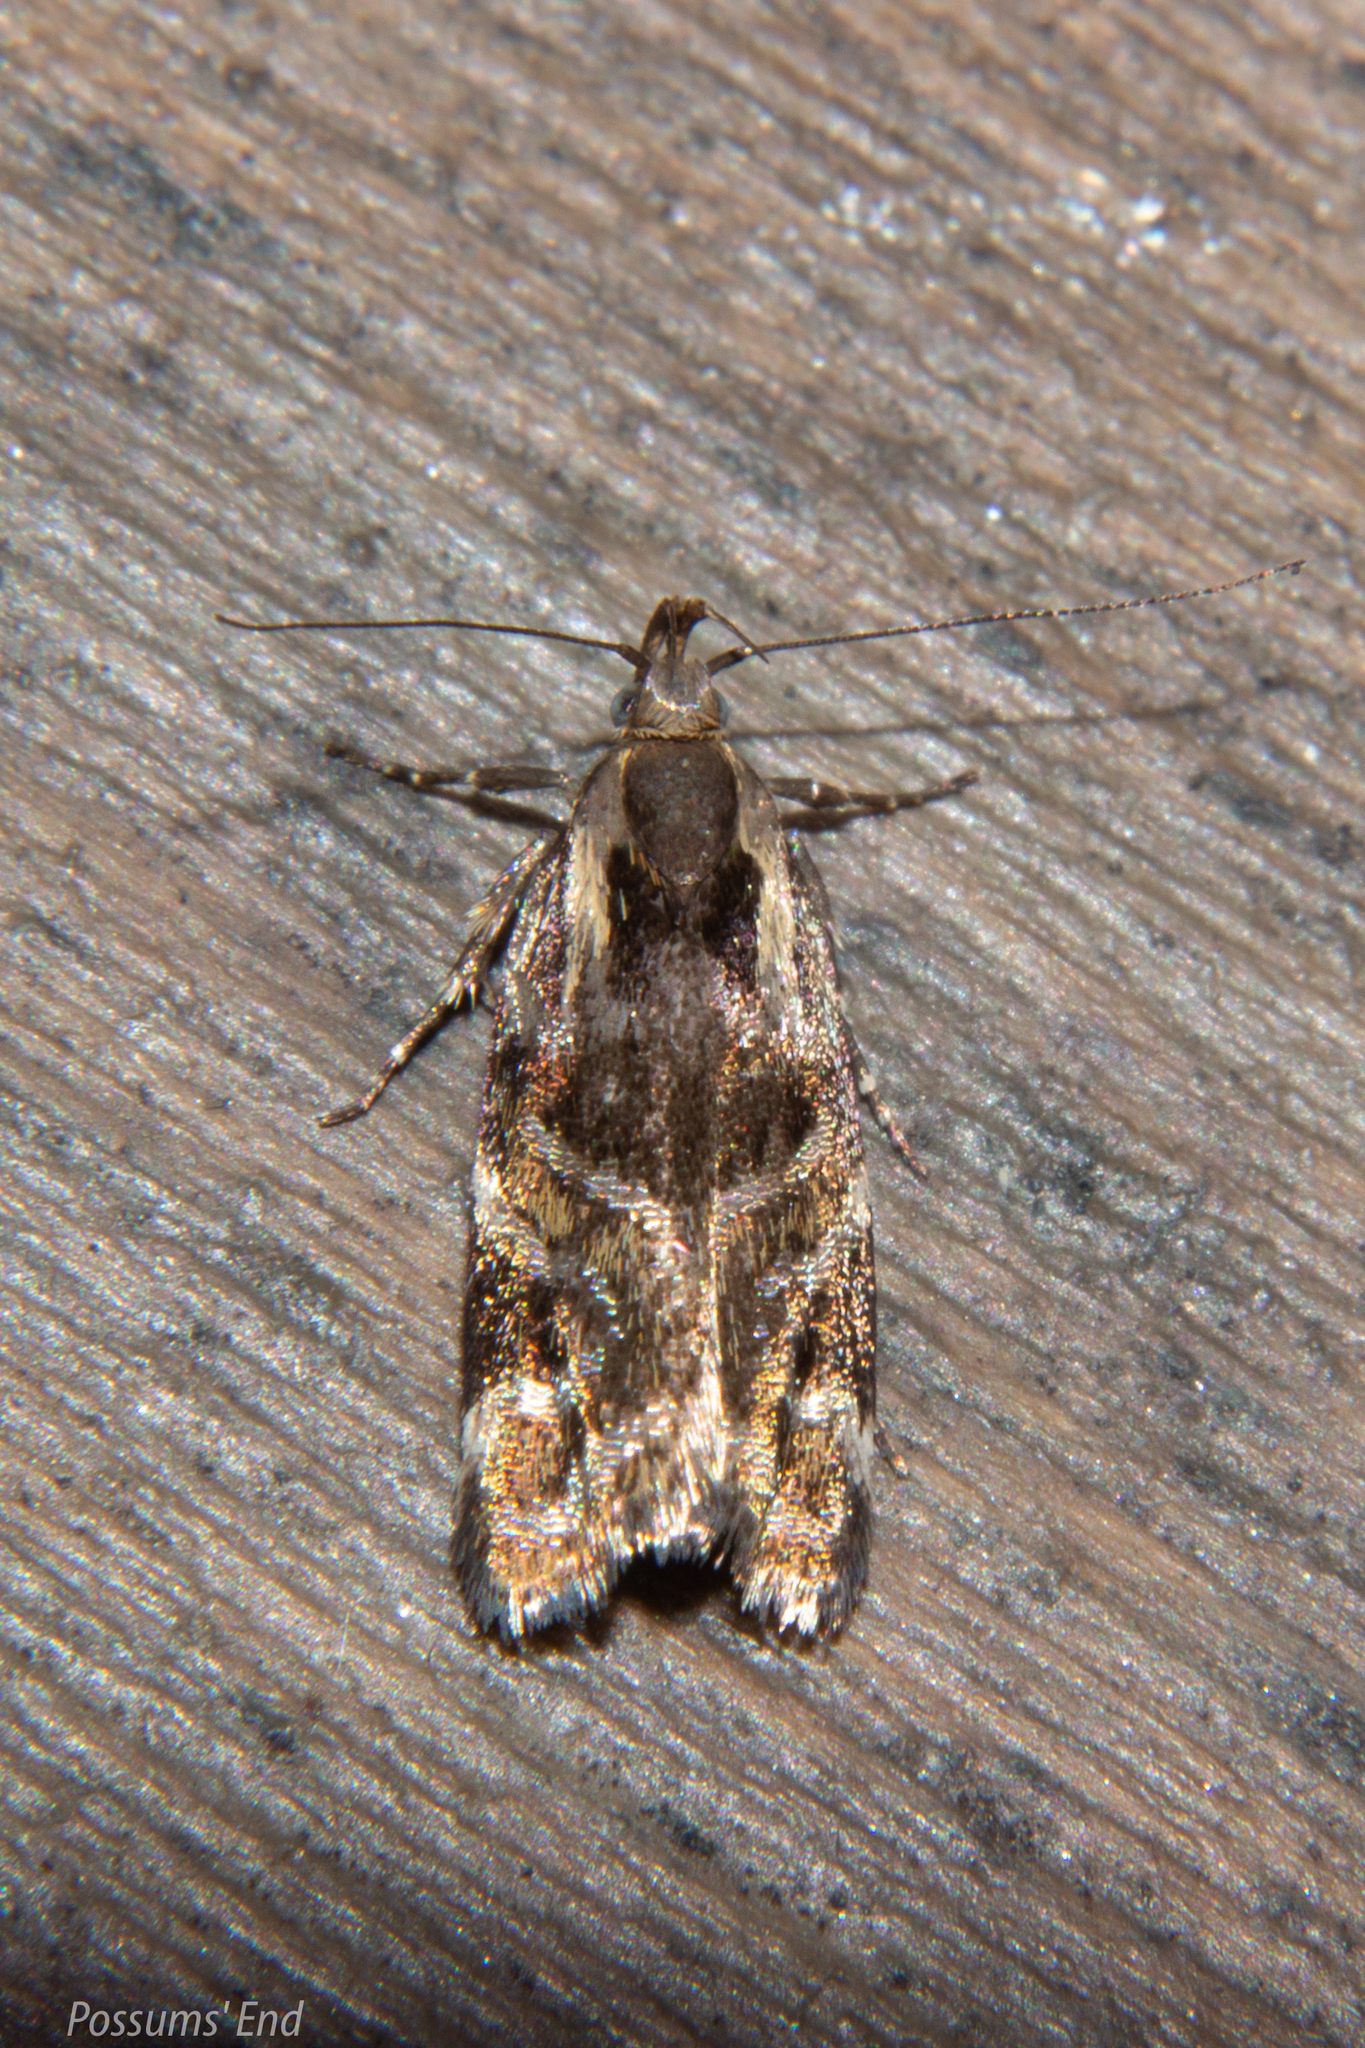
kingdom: Animalia
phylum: Arthropoda
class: Insecta
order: Lepidoptera
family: Oecophoridae
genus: Hierodoris
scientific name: Hierodoris s-fractum
